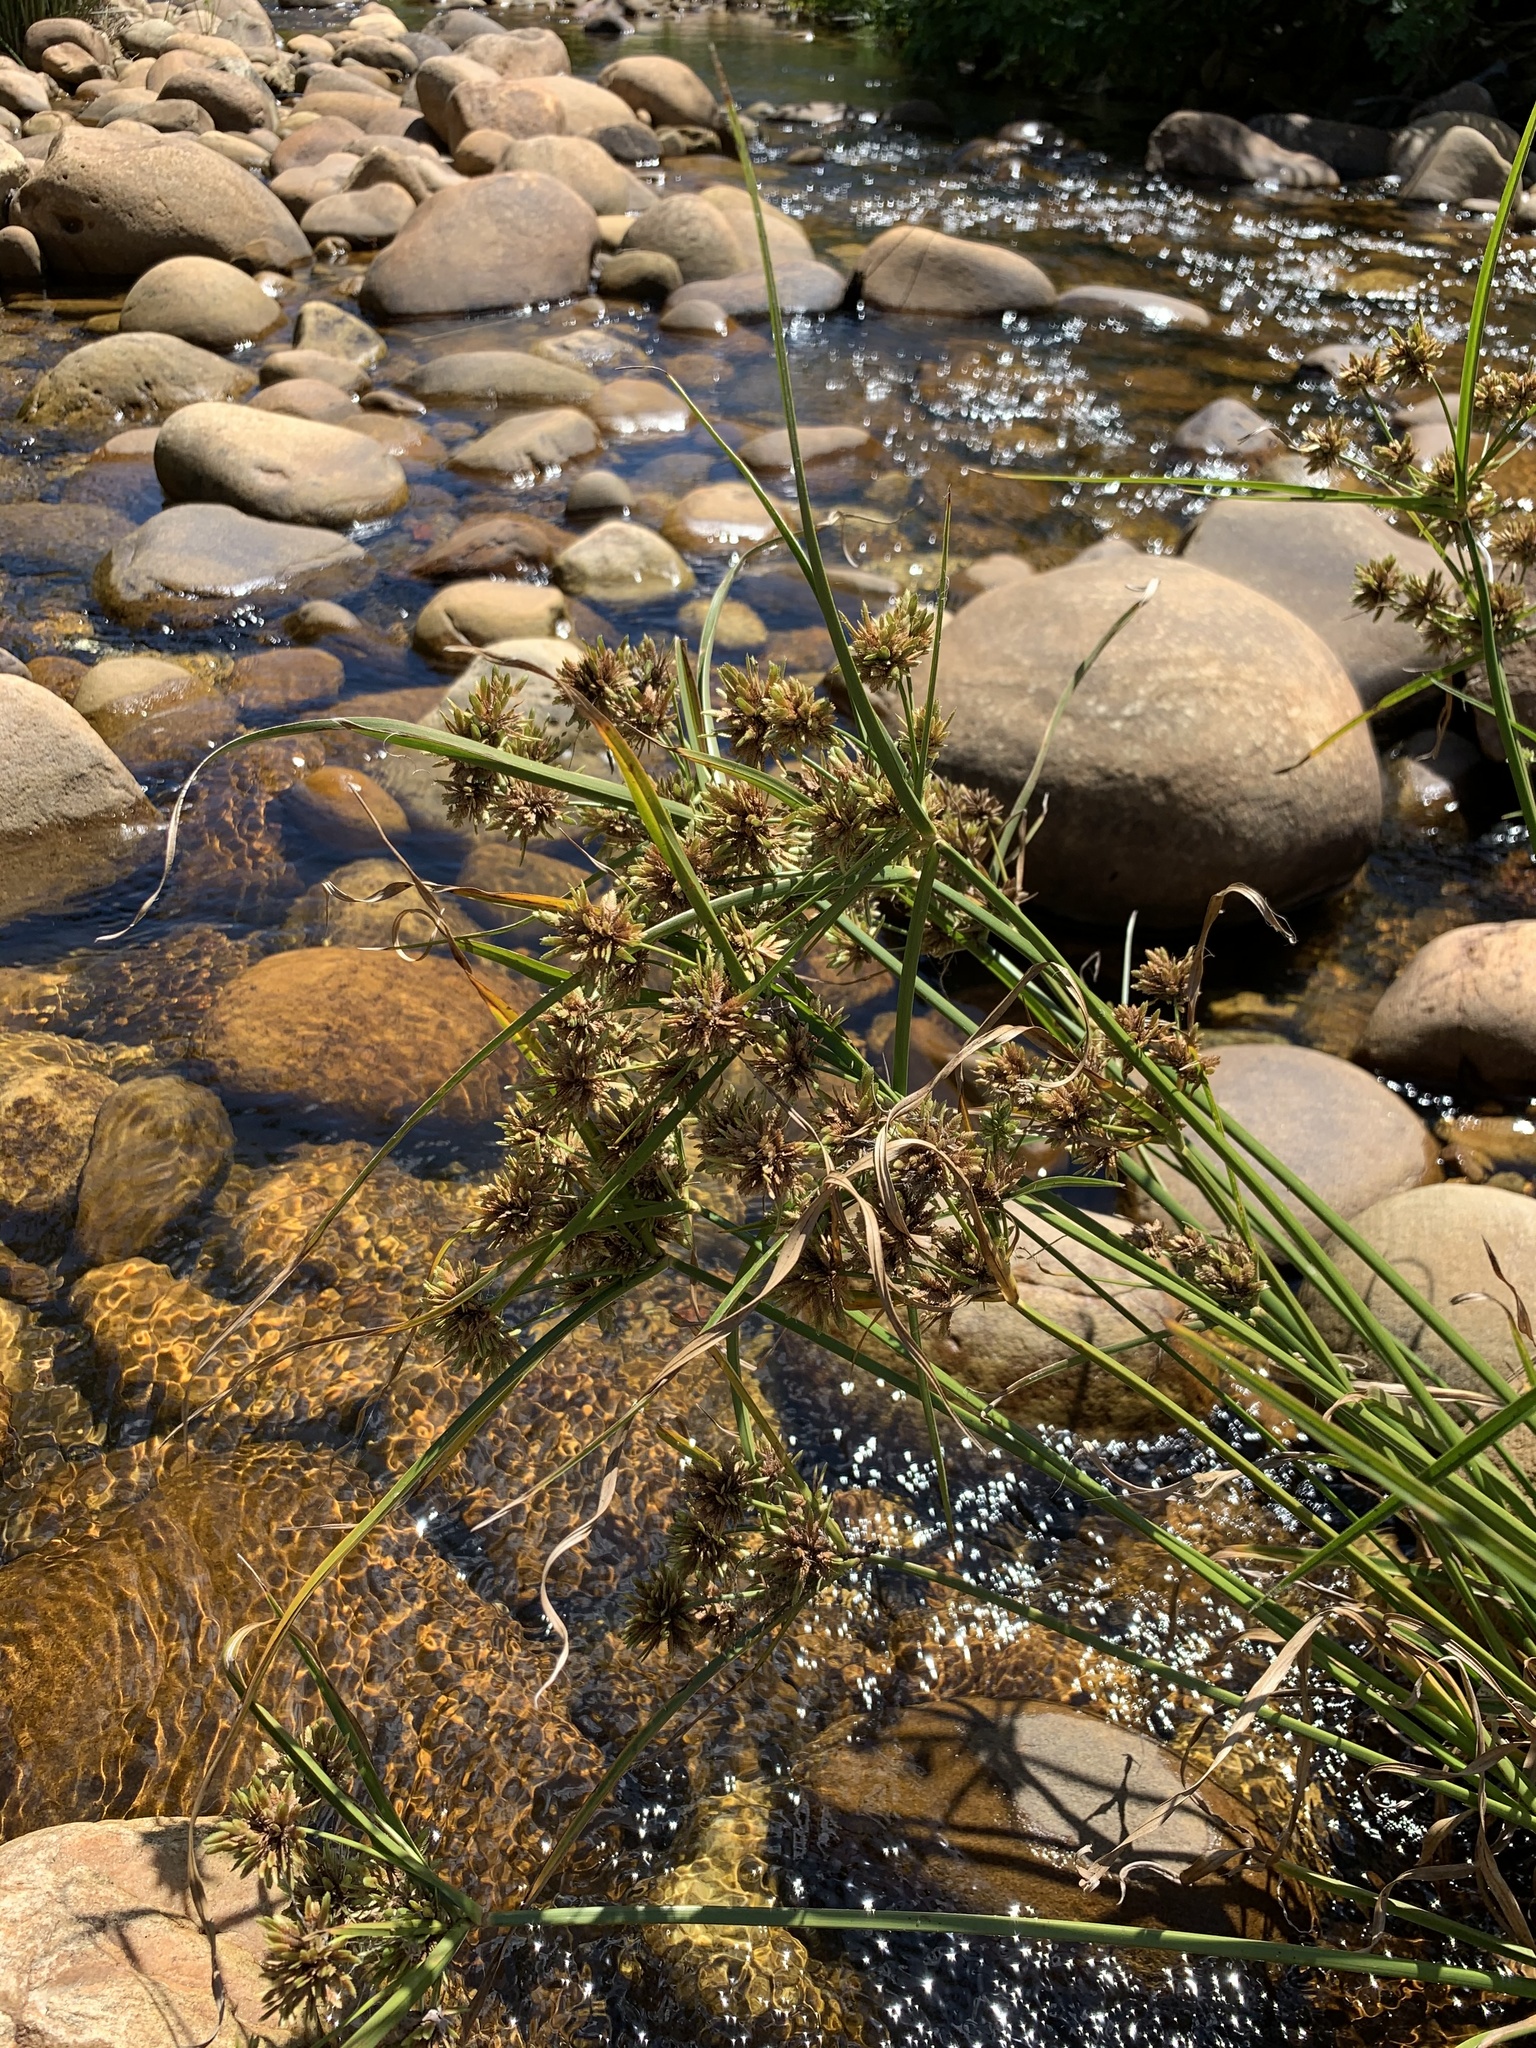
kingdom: Plantae
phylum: Tracheophyta
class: Liliopsida
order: Poales
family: Cyperaceae
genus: Cyperus
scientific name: Cyperus eragrostis
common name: Tall flatsedge
